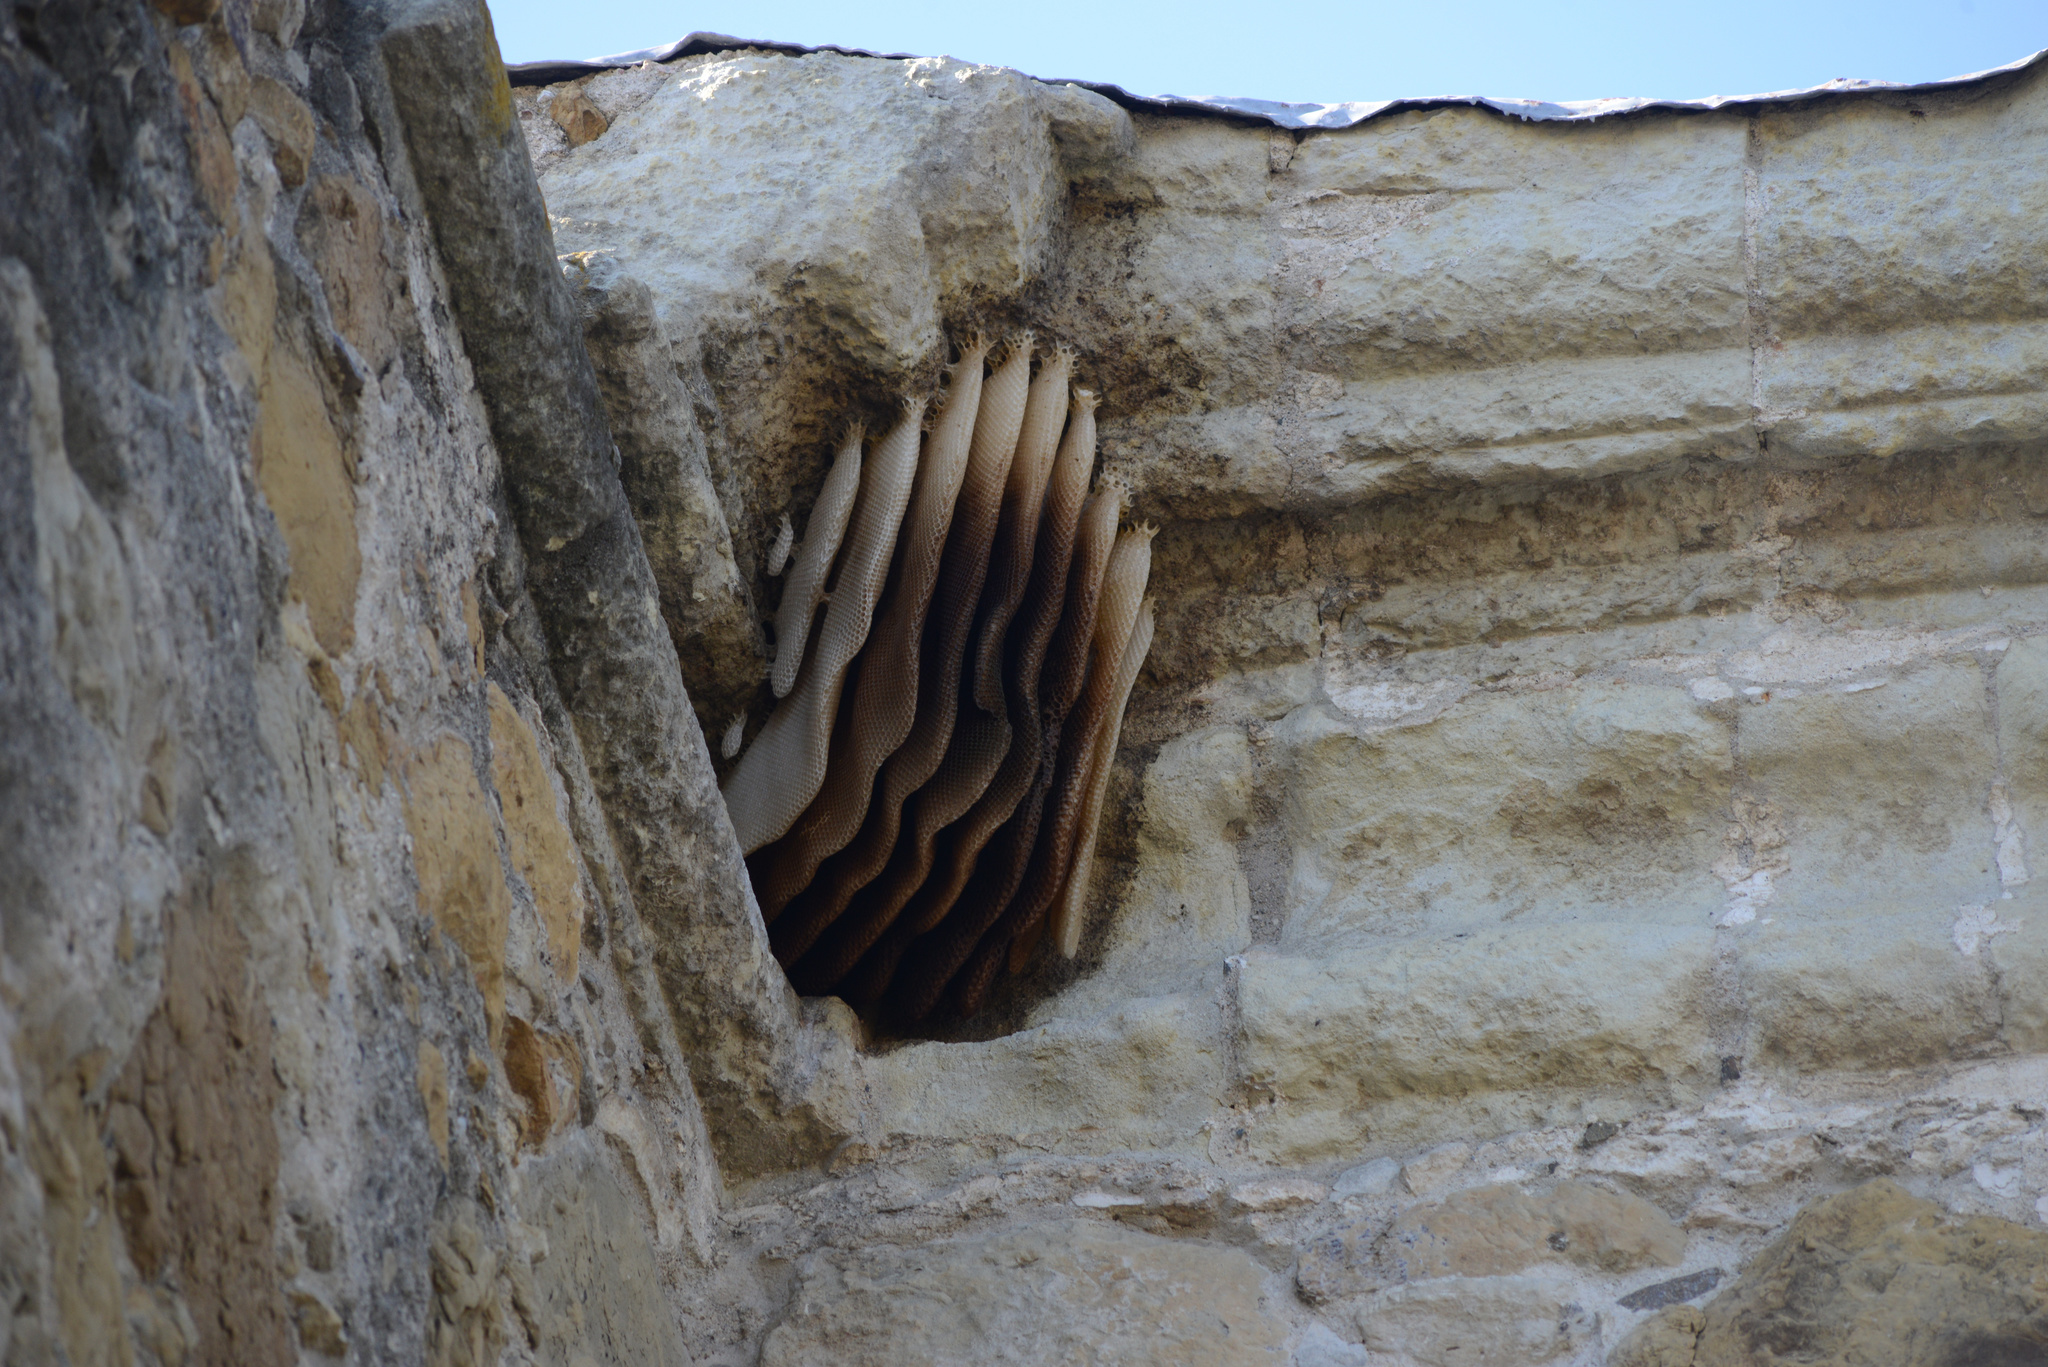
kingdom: Animalia
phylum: Arthropoda
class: Insecta
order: Hymenoptera
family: Apidae
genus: Apis
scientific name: Apis mellifera
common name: Honey bee
